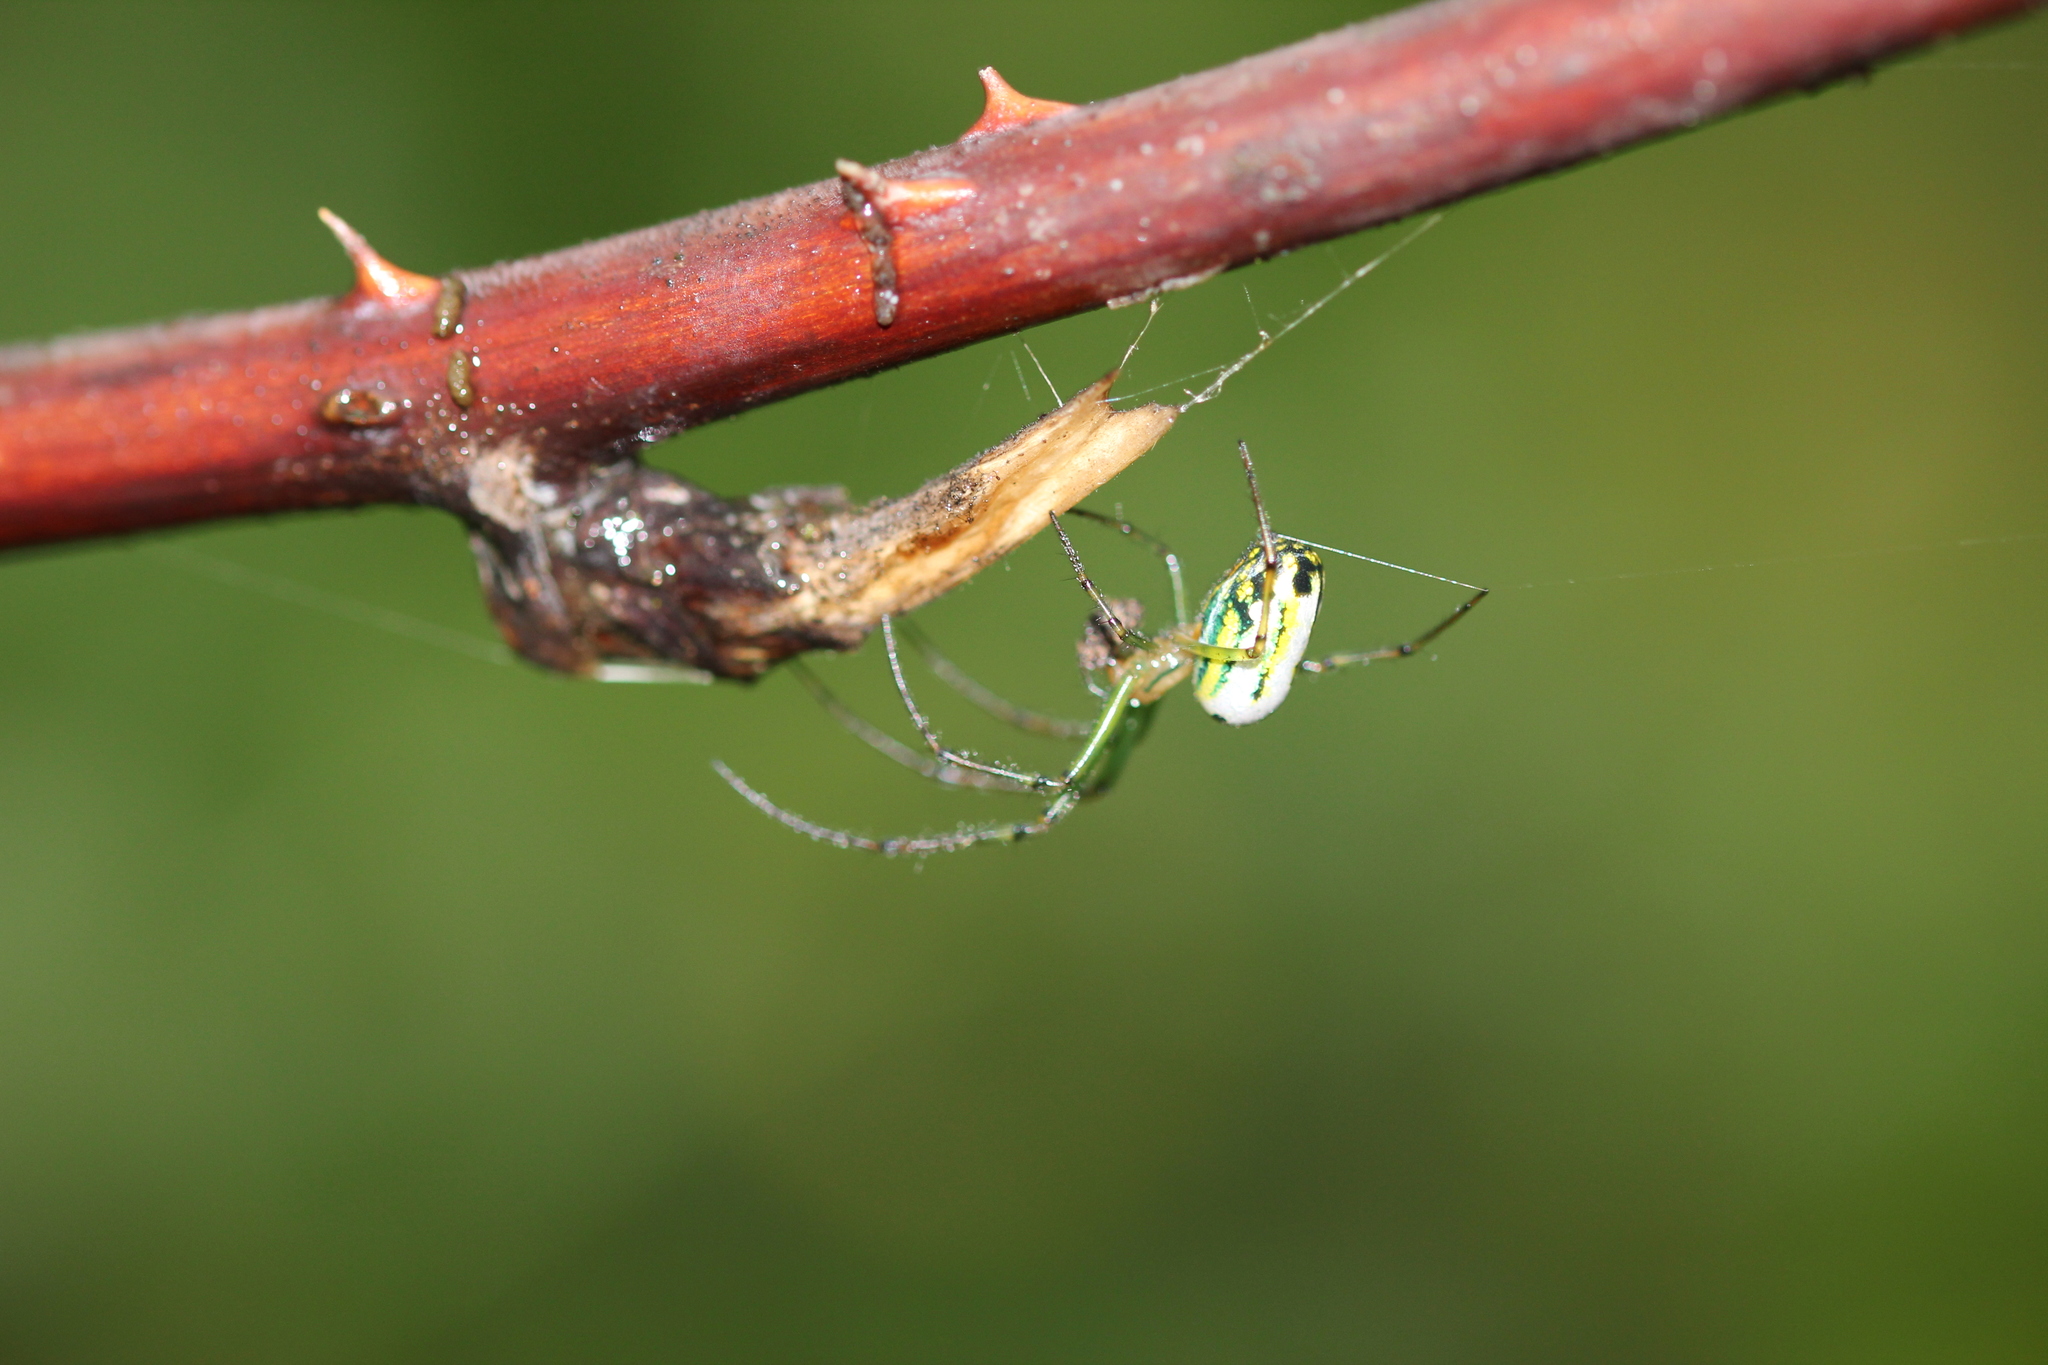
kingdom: Animalia
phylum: Arthropoda
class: Arachnida
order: Araneae
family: Tetragnathidae
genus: Leucauge
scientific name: Leucauge venusta
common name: Longjawed orb weavers
